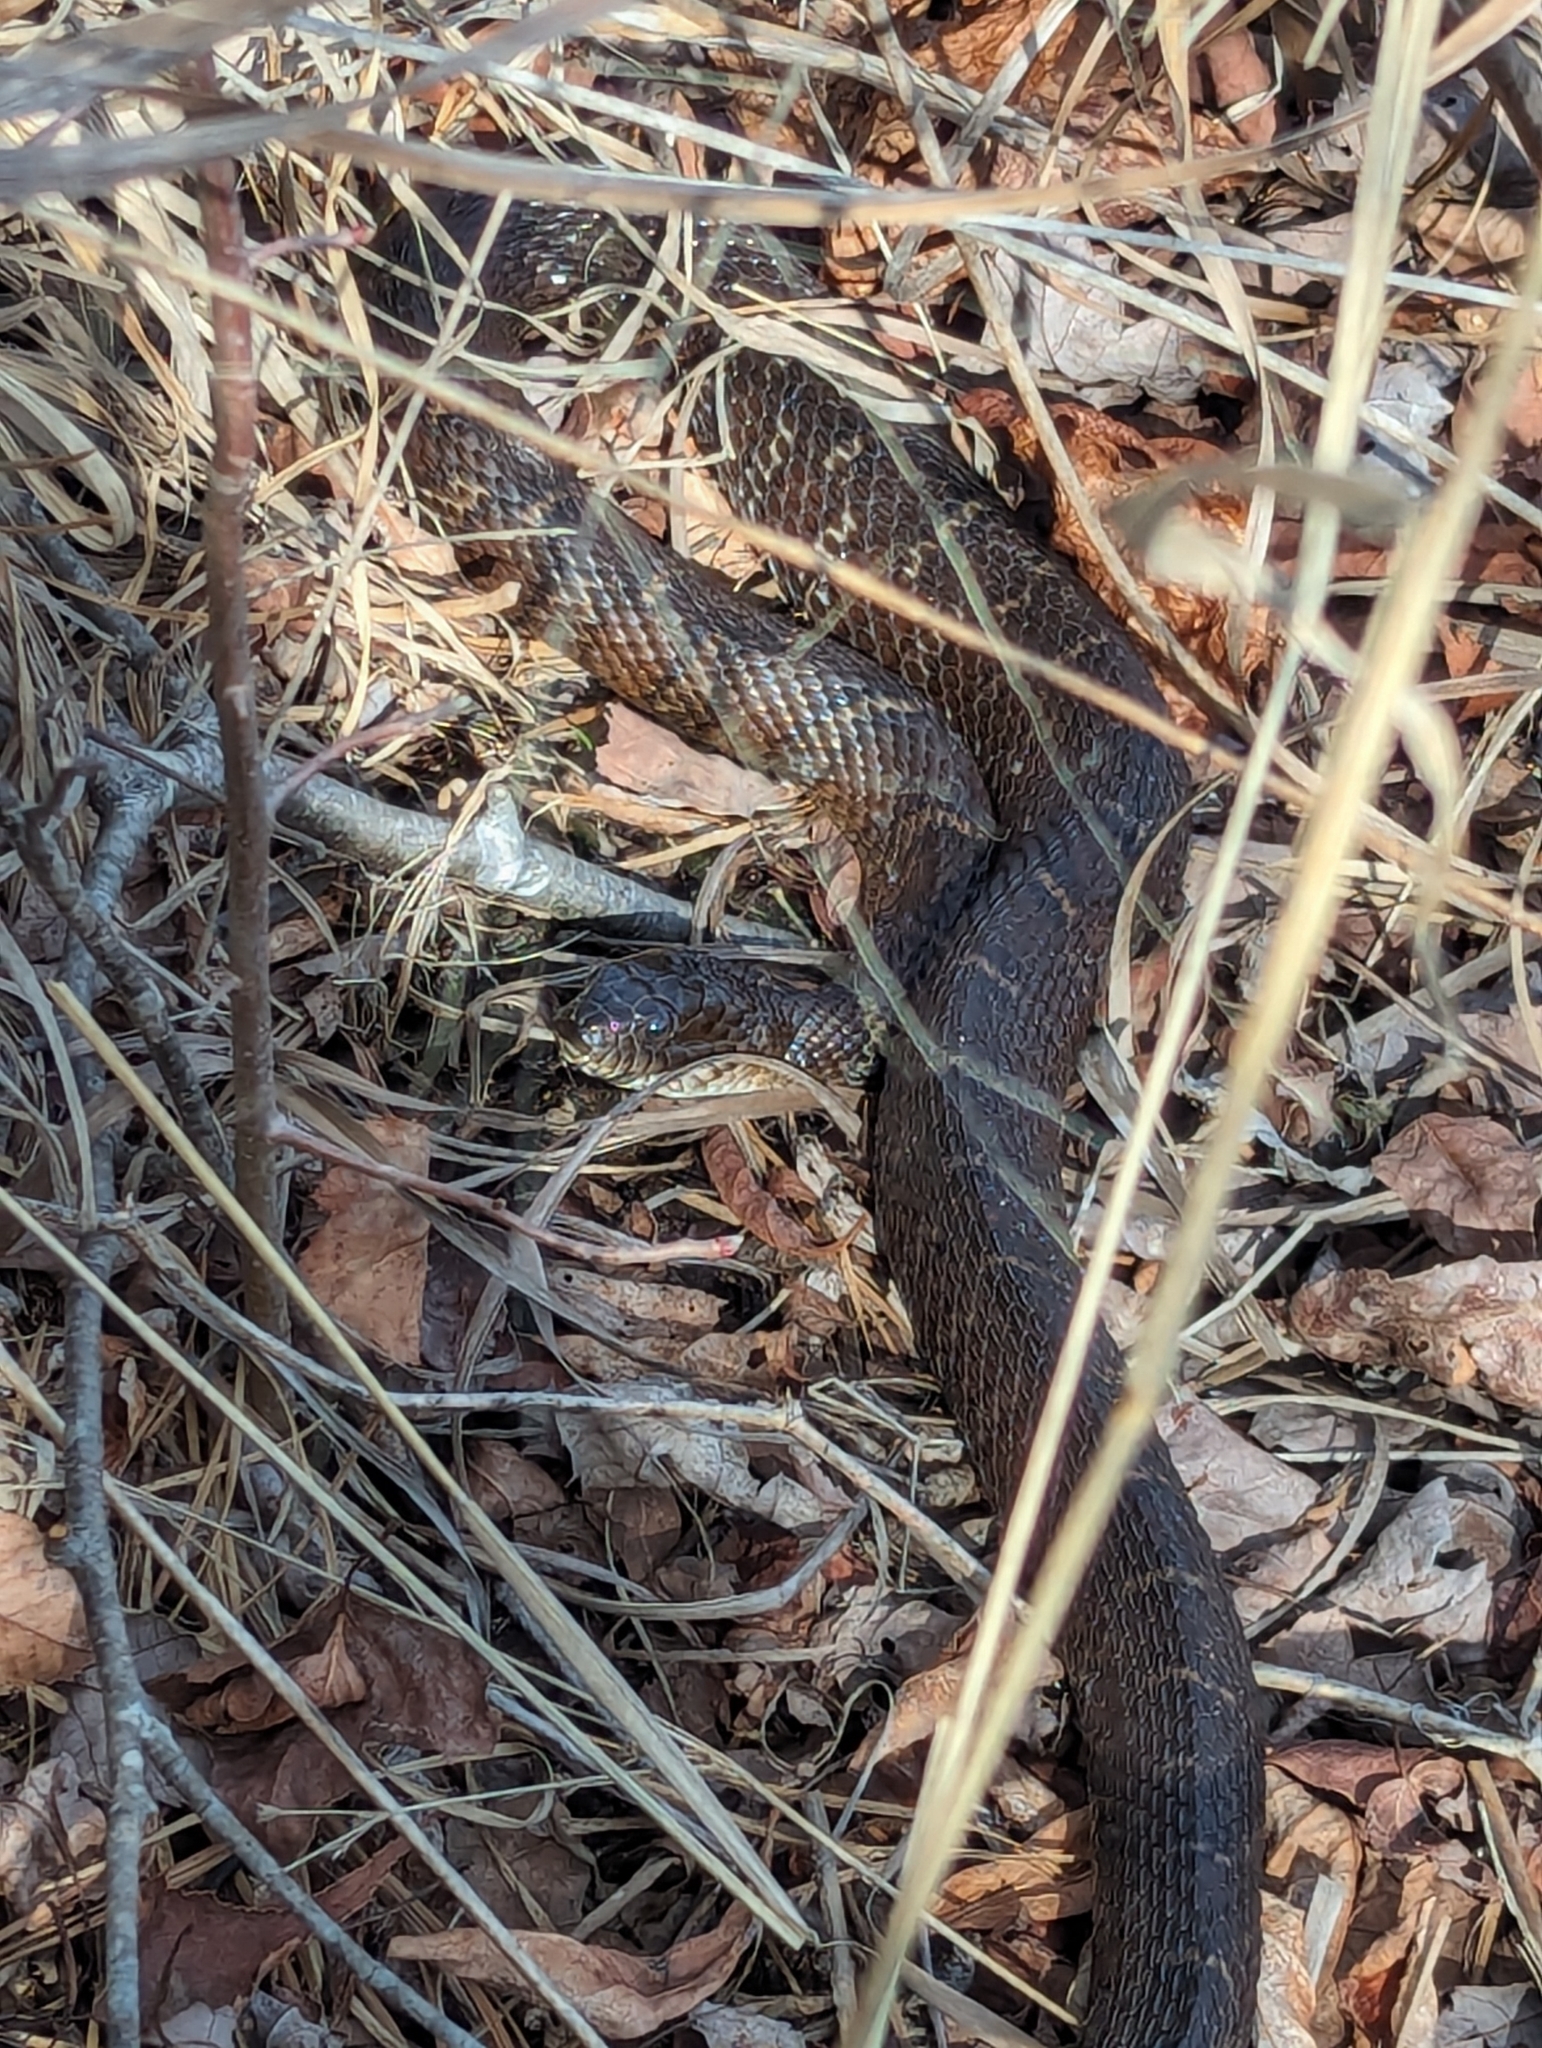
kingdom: Animalia
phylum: Chordata
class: Squamata
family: Colubridae
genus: Nerodia
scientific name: Nerodia sipedon
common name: Northern water snake
